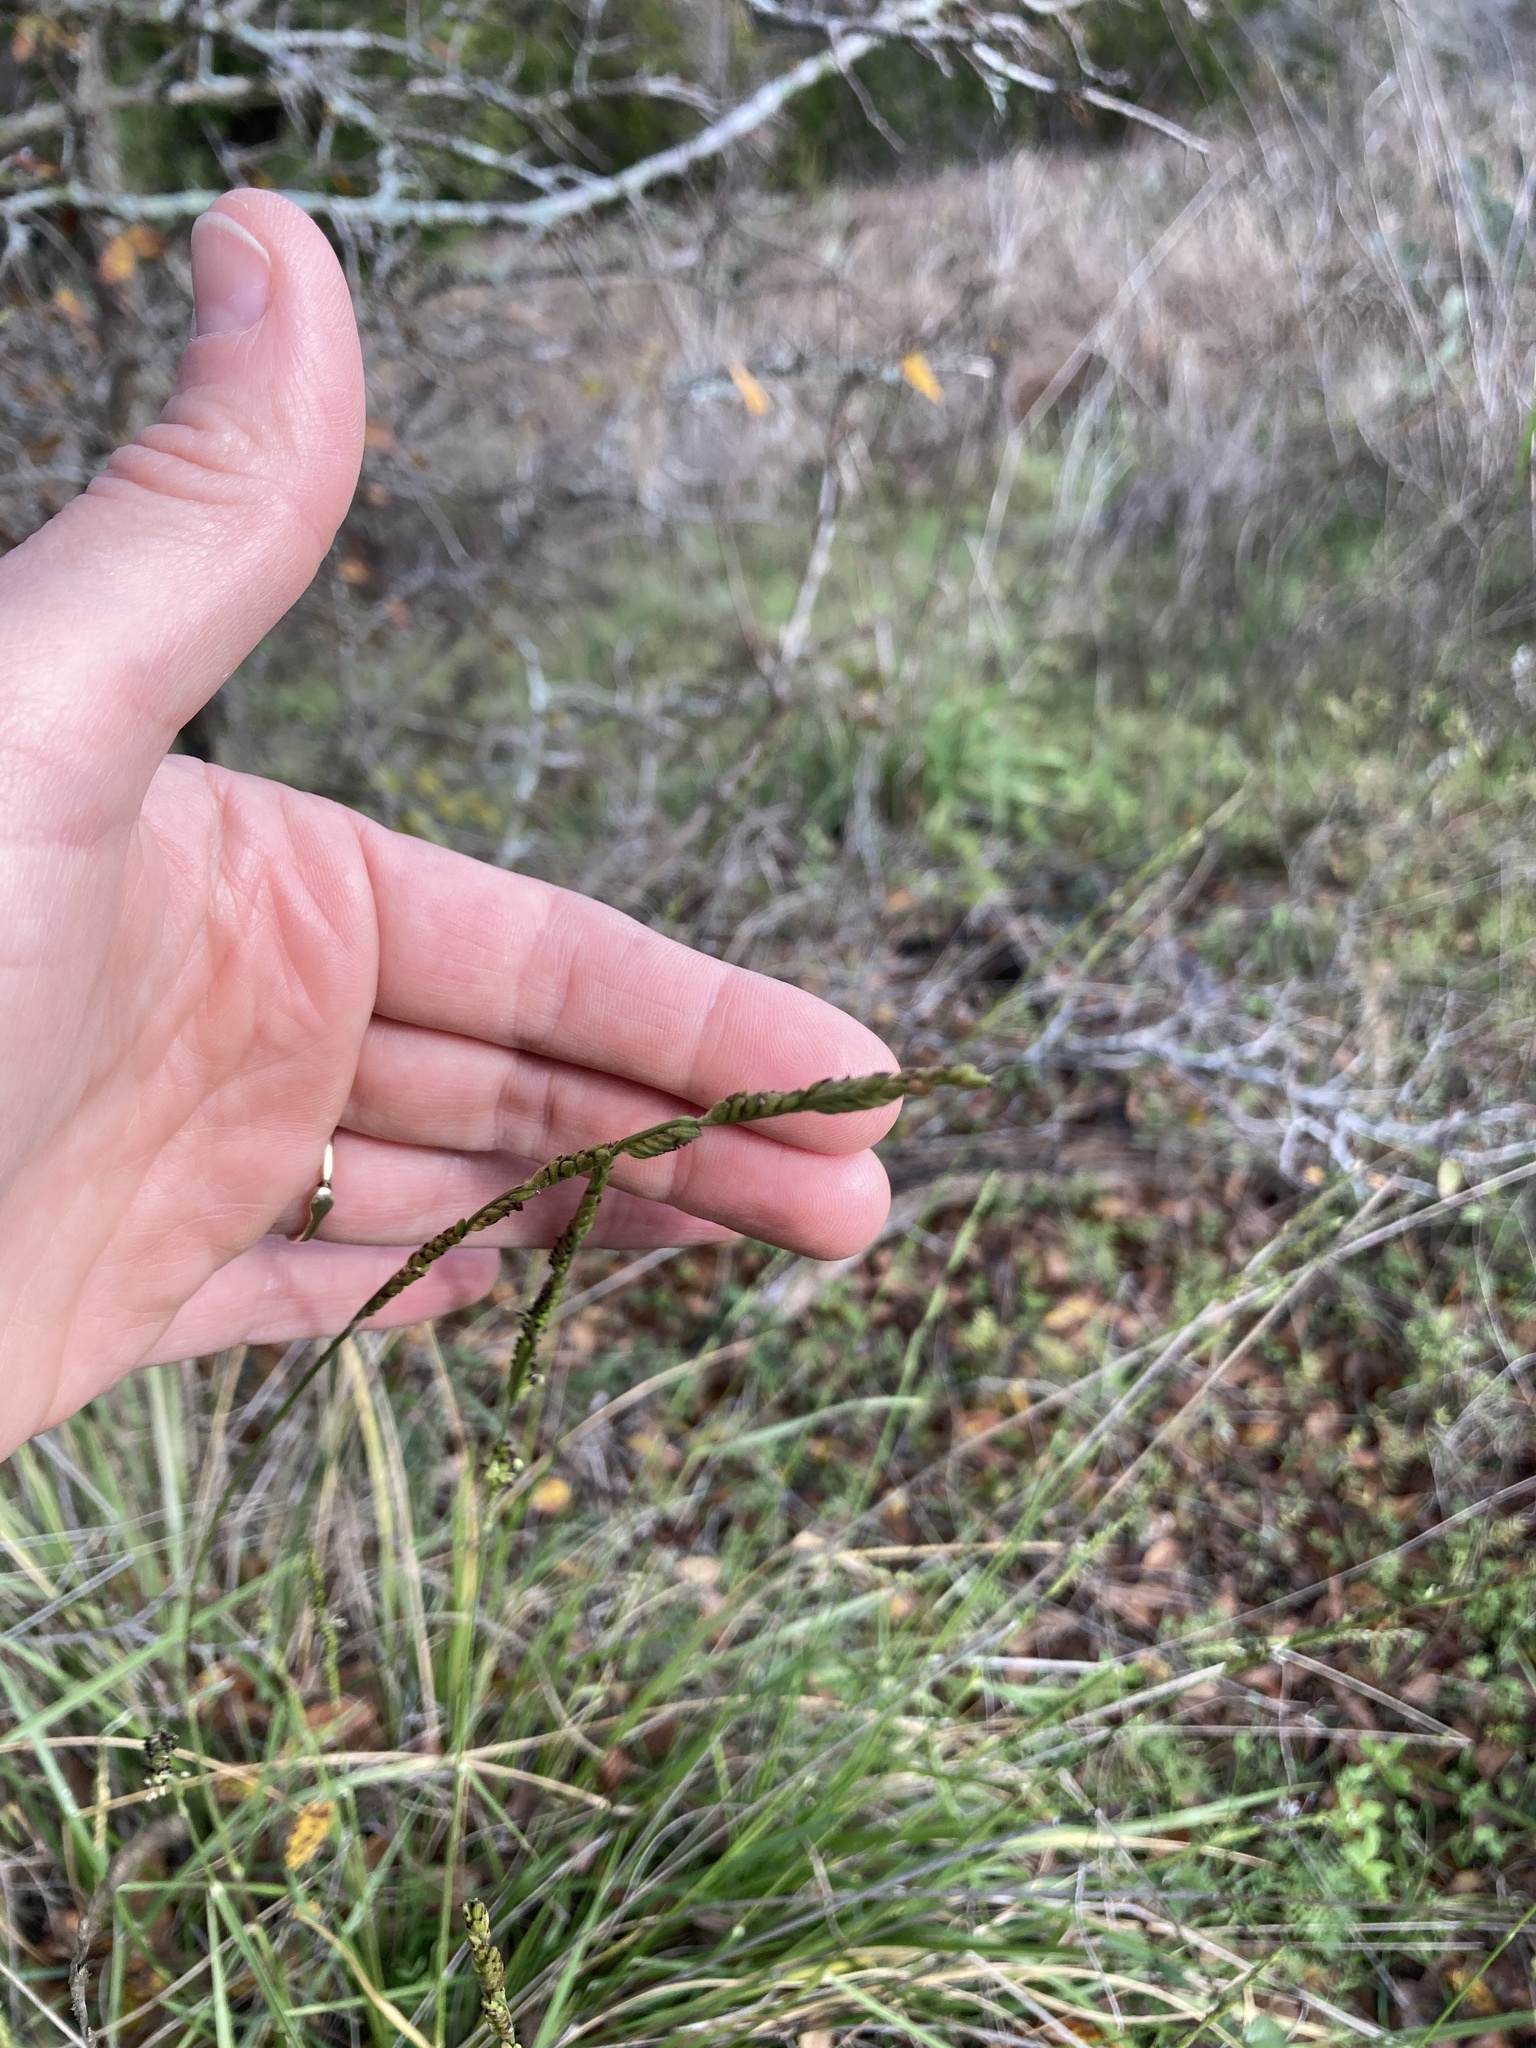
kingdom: Plantae
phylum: Tracheophyta
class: Liliopsida
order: Poales
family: Poaceae
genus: Eriochloa
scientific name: Eriochloa sericea
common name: Texas cup grass
